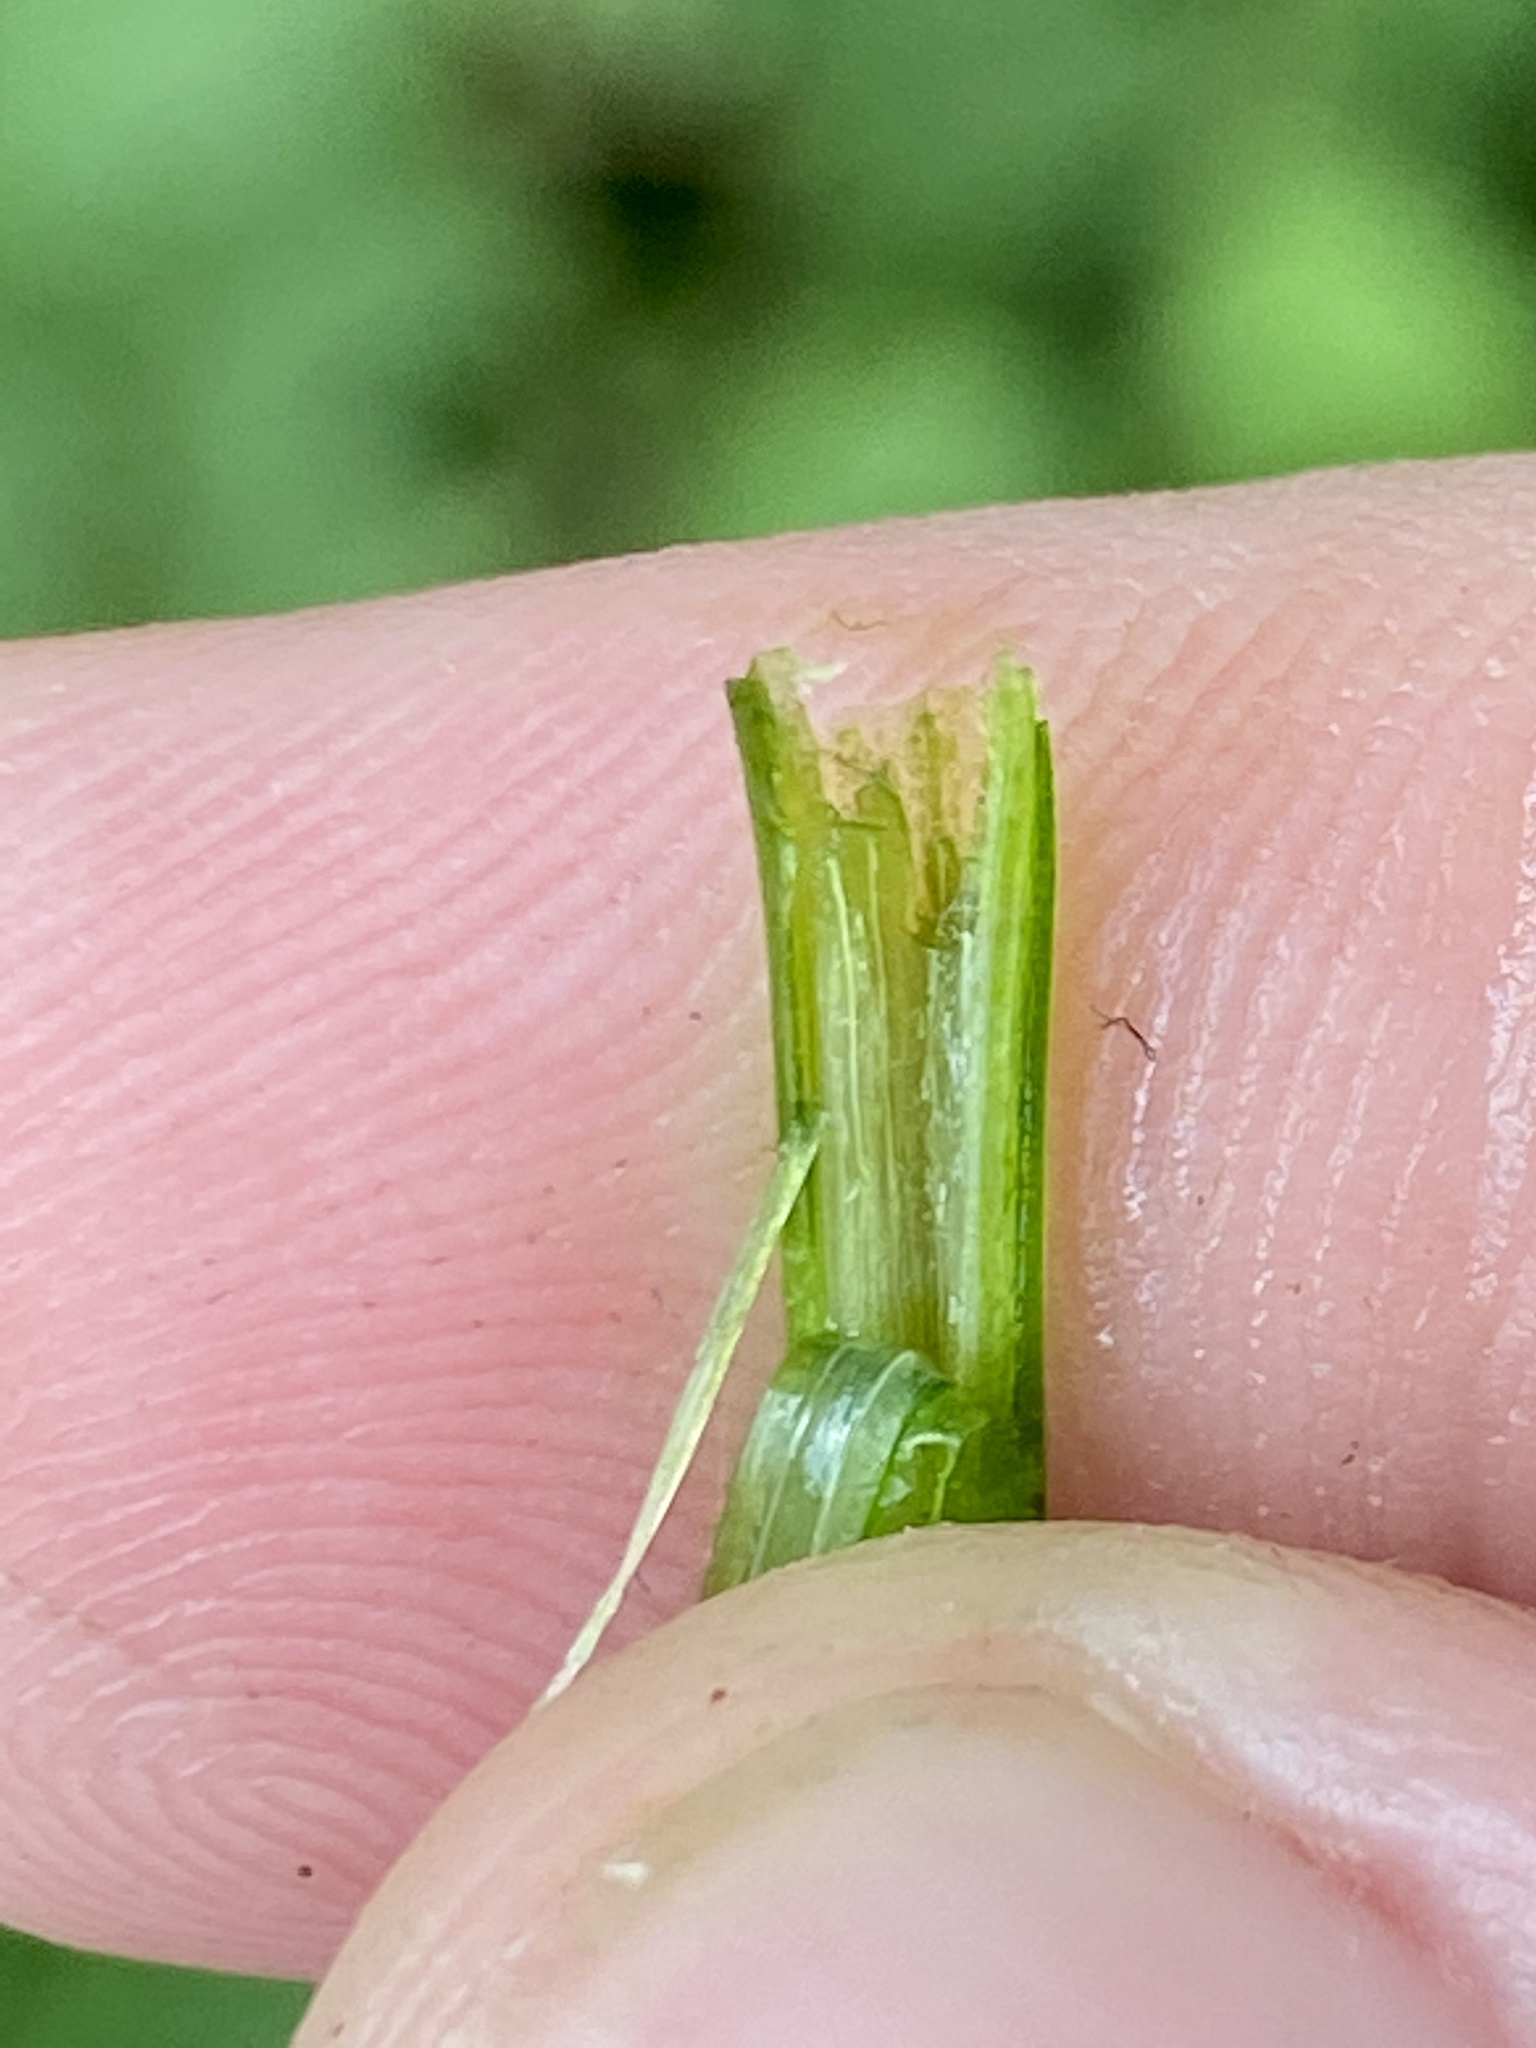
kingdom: Plantae
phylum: Tracheophyta
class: Liliopsida
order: Asparagales
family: Amaryllidaceae
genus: Allium
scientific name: Allium tuberosum
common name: Chinese chives
